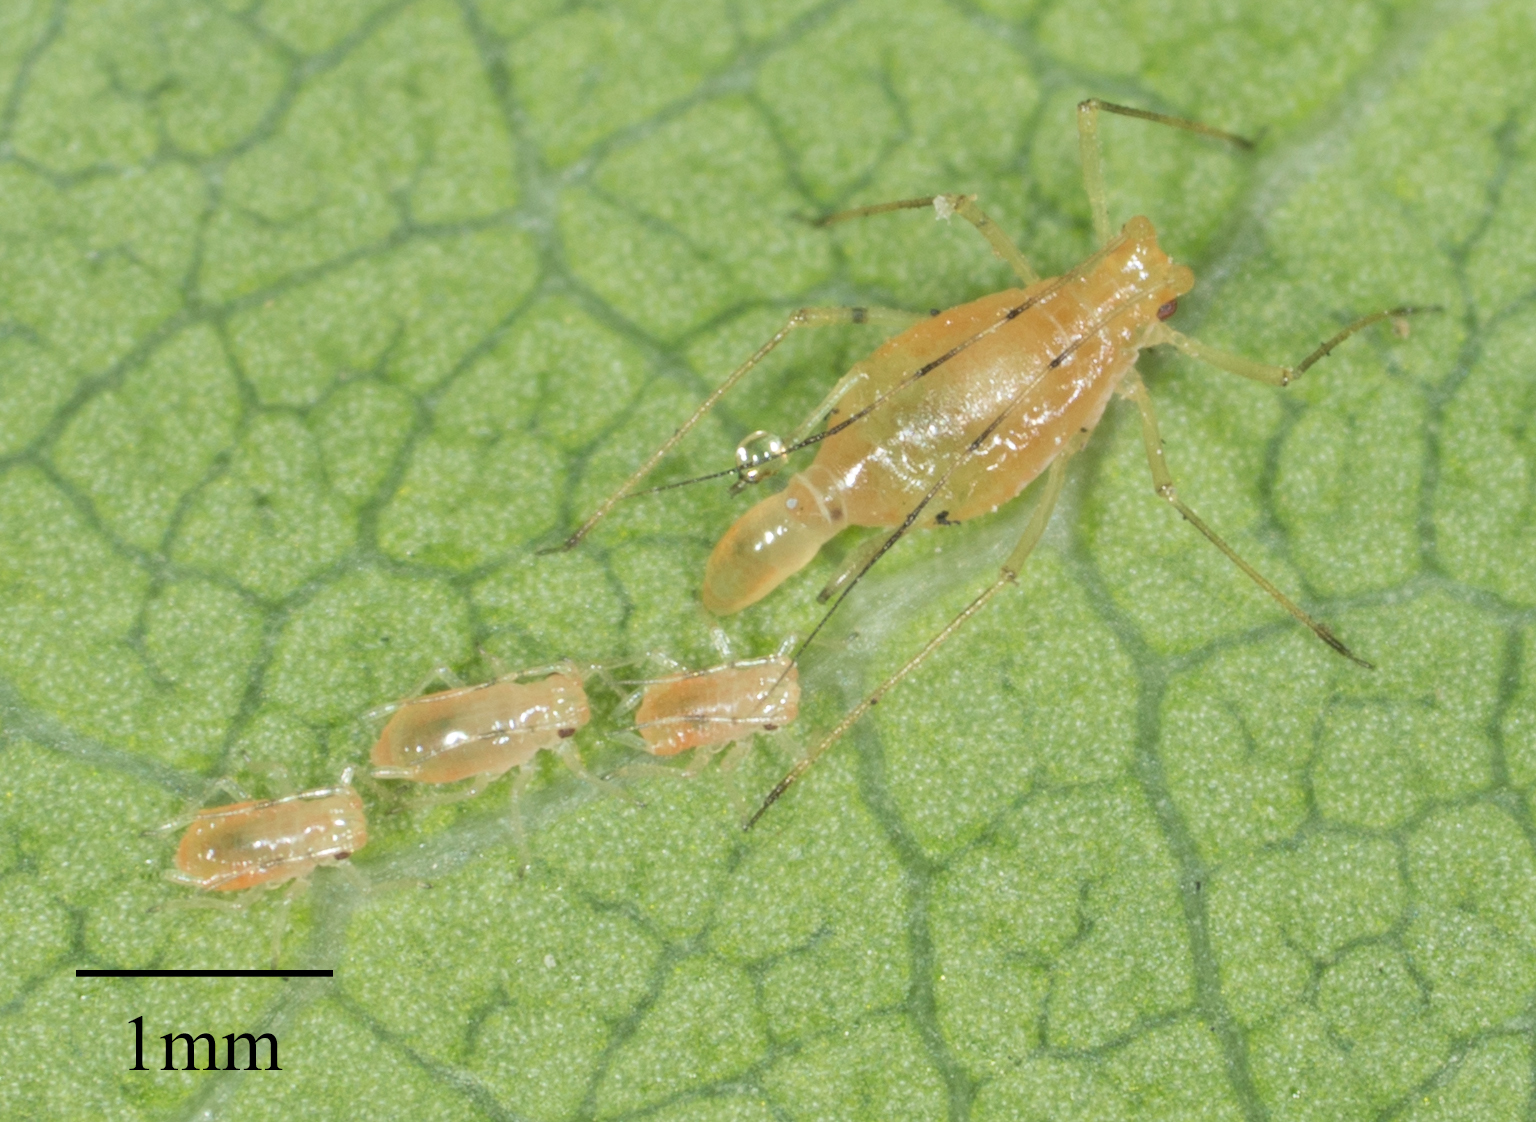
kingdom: Animalia
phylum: Arthropoda
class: Insecta
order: Hemiptera
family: Aphididae
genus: Wahlgreniella
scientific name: Wahlgreniella nervata
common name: Pale green aphid
